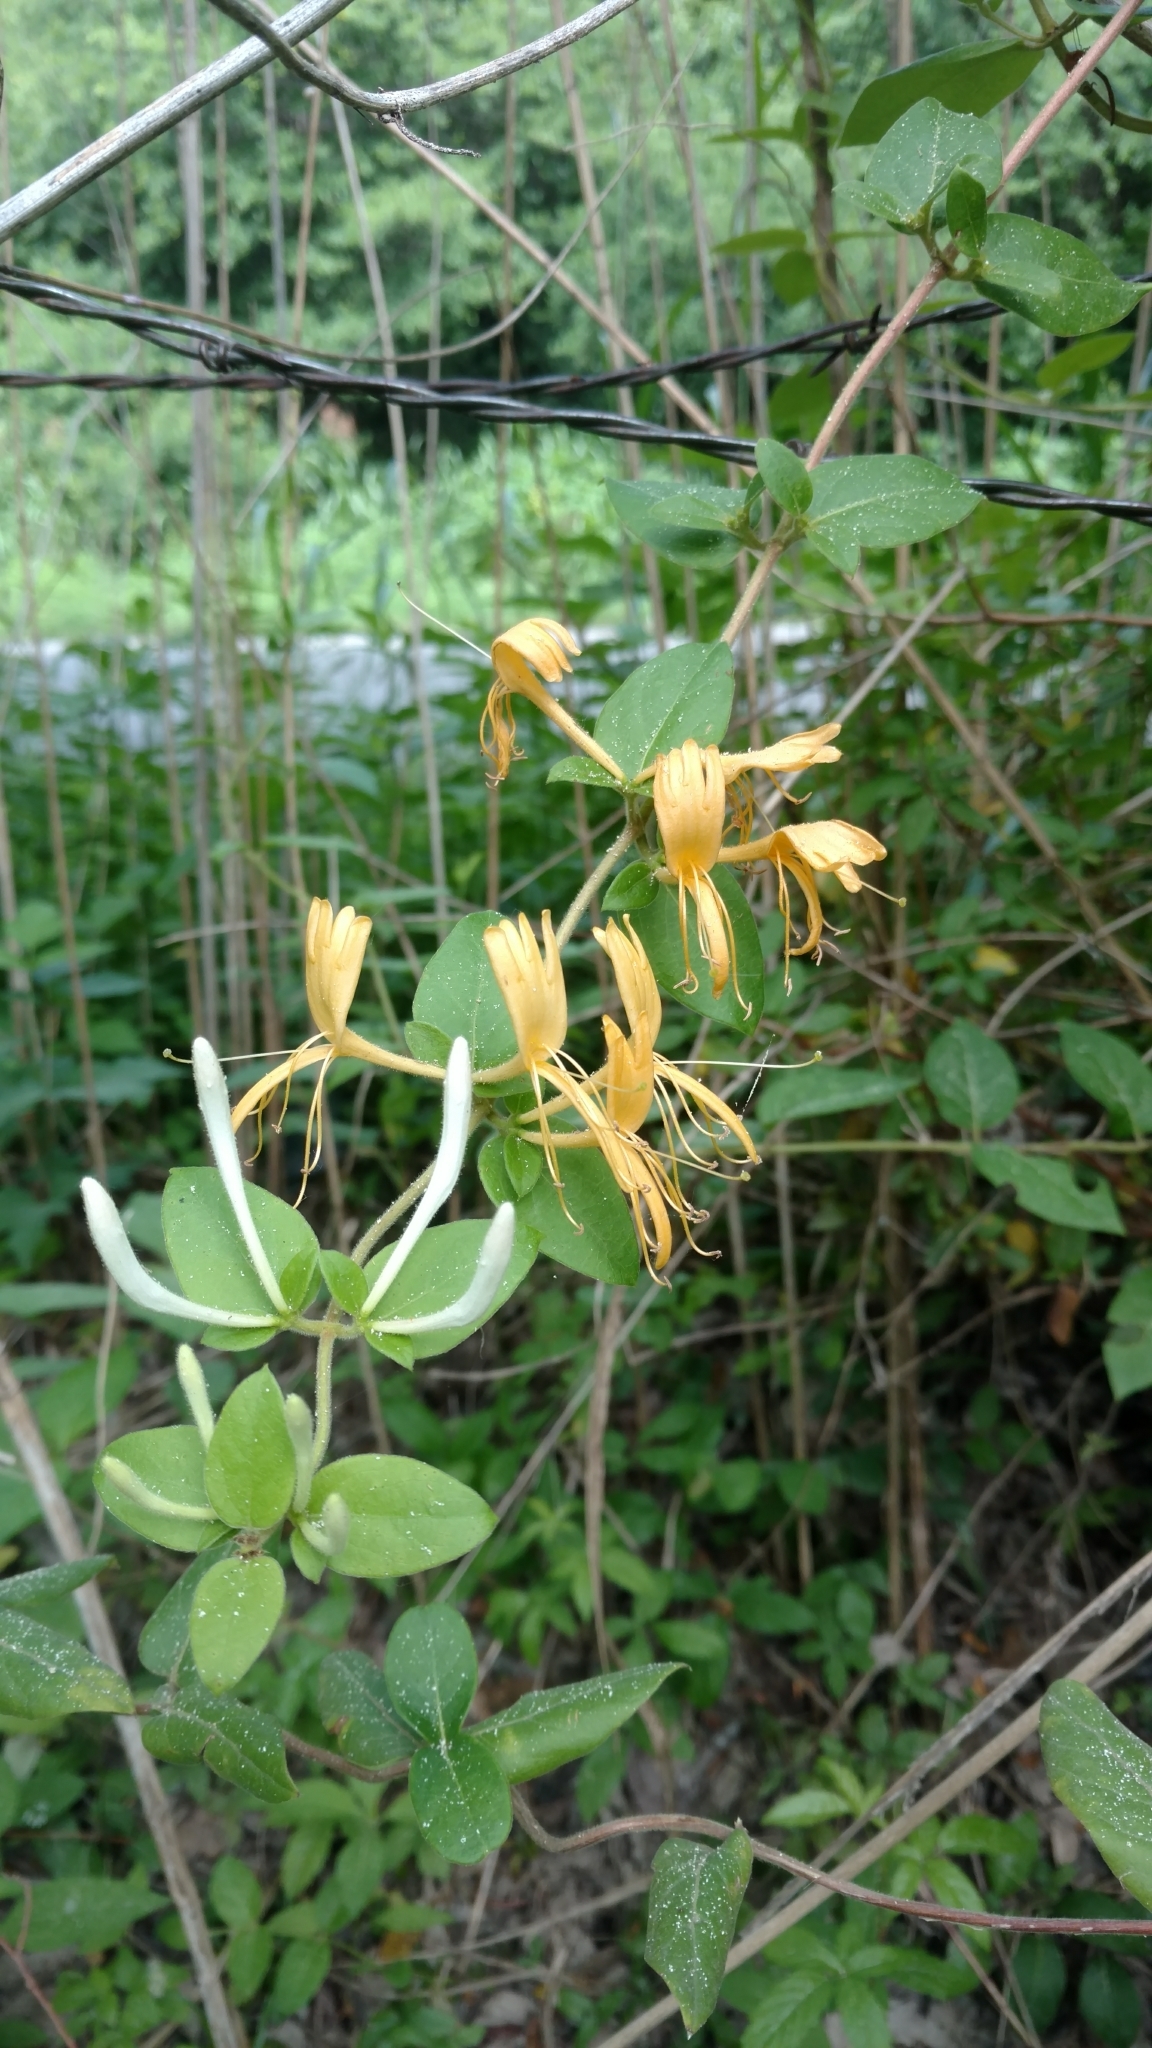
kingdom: Plantae
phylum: Tracheophyta
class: Magnoliopsida
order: Dipsacales
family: Caprifoliaceae
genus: Lonicera
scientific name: Lonicera japonica
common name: Japanese honeysuckle
